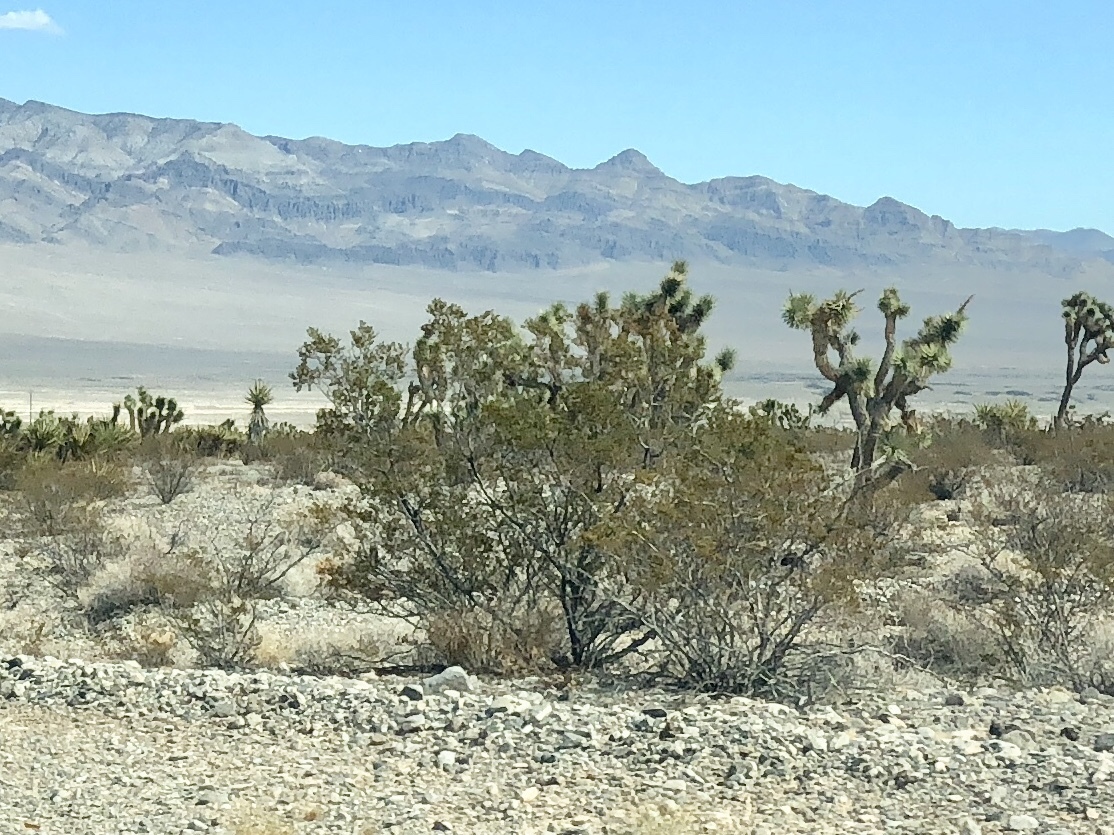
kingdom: Plantae
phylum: Tracheophyta
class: Magnoliopsida
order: Zygophyllales
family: Zygophyllaceae
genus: Larrea
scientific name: Larrea tridentata
